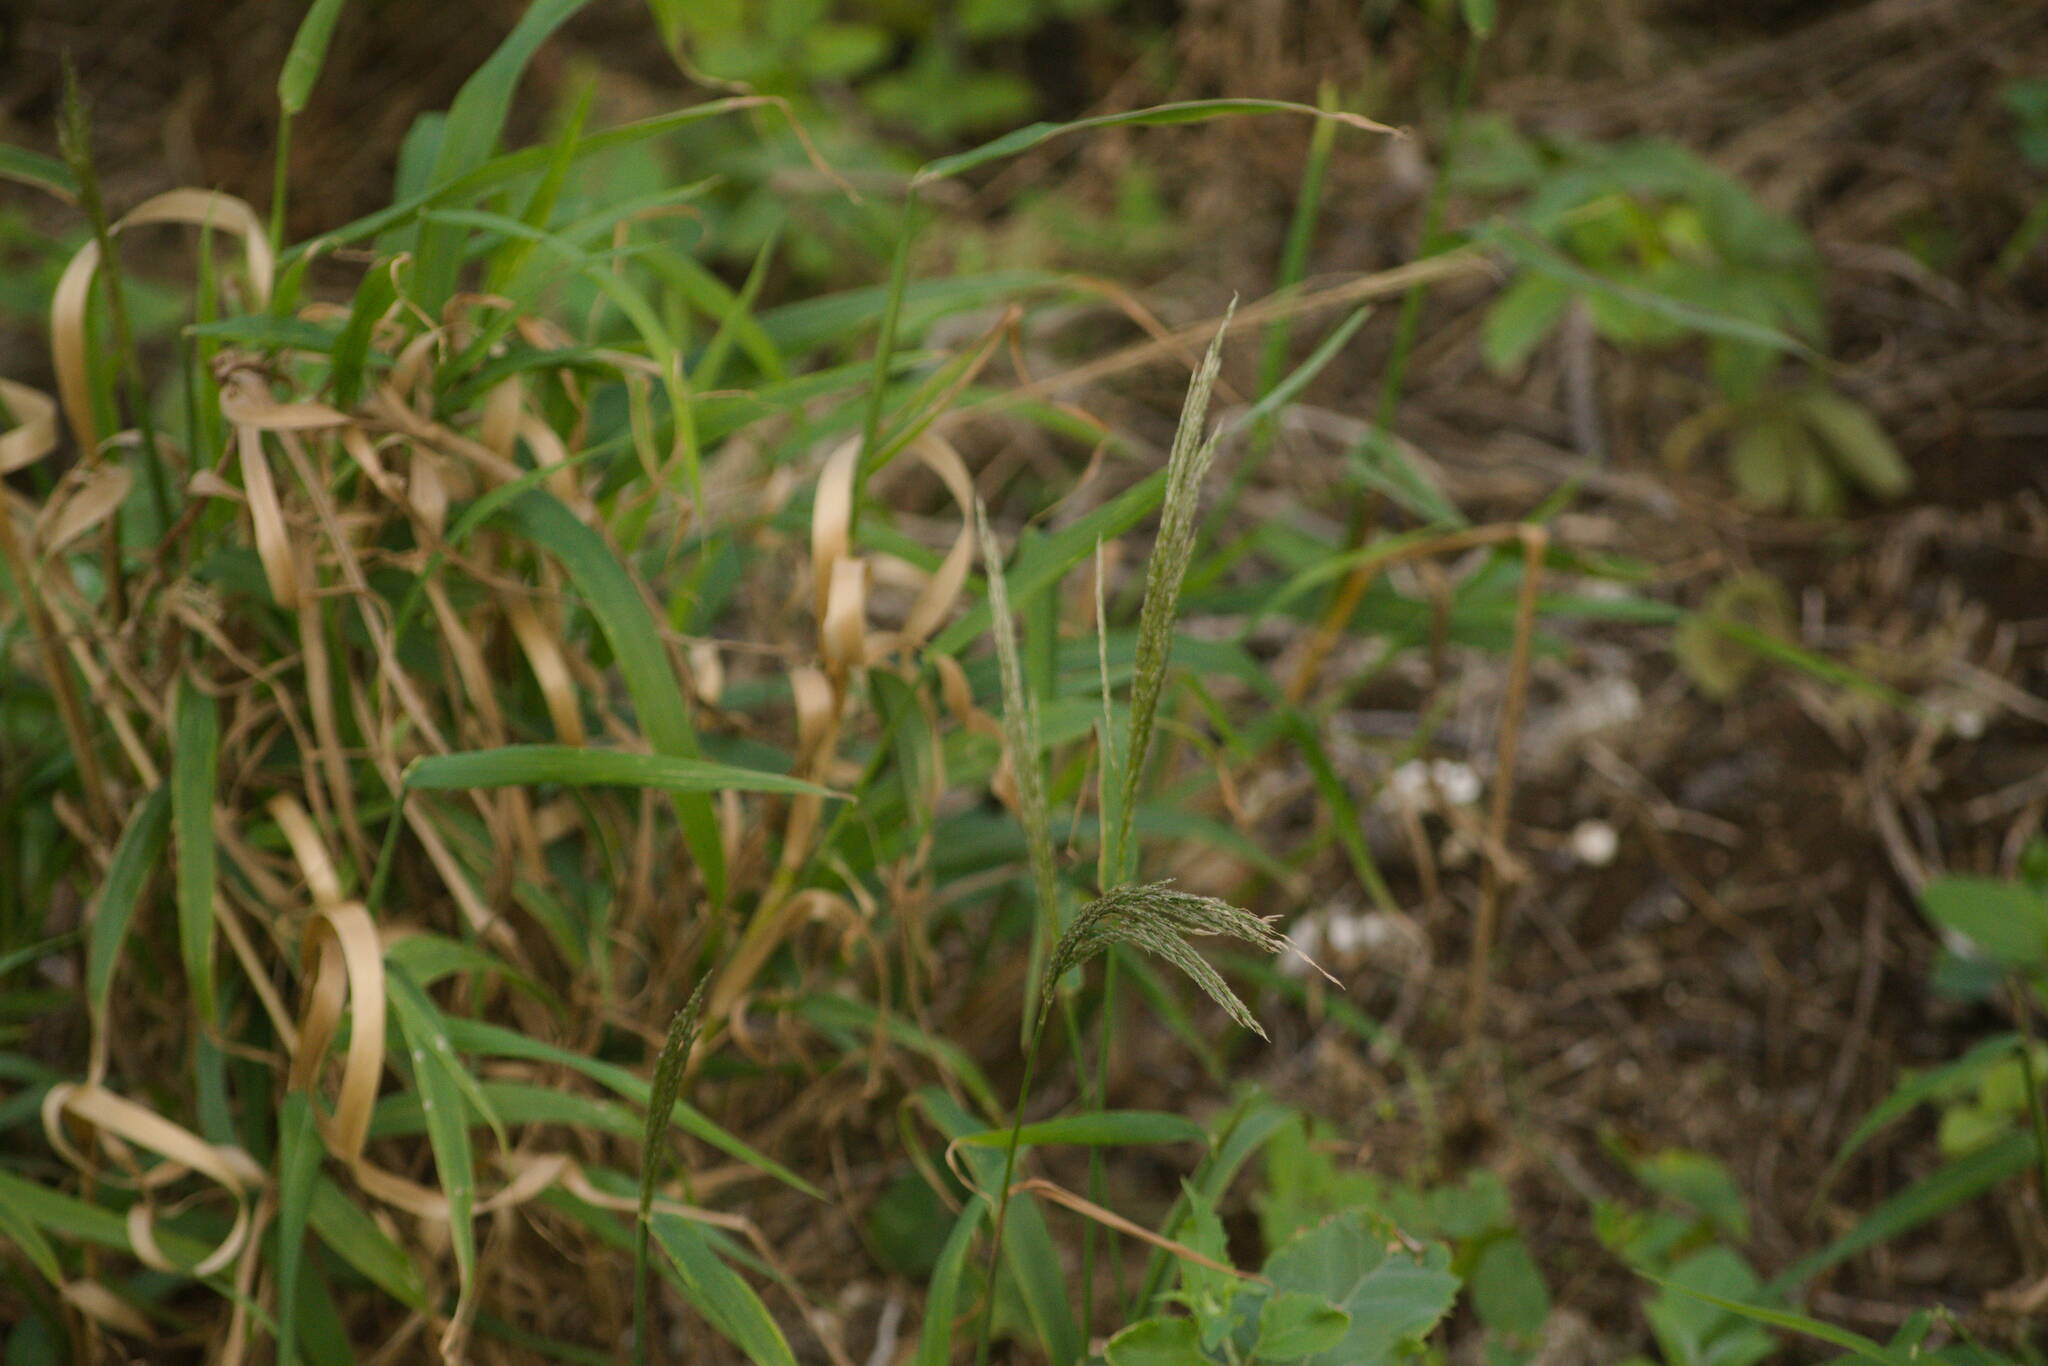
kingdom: Plantae
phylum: Tracheophyta
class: Liliopsida
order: Poales
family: Poaceae
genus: Digitaria
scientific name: Digitaria insularis
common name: Sourgrass
